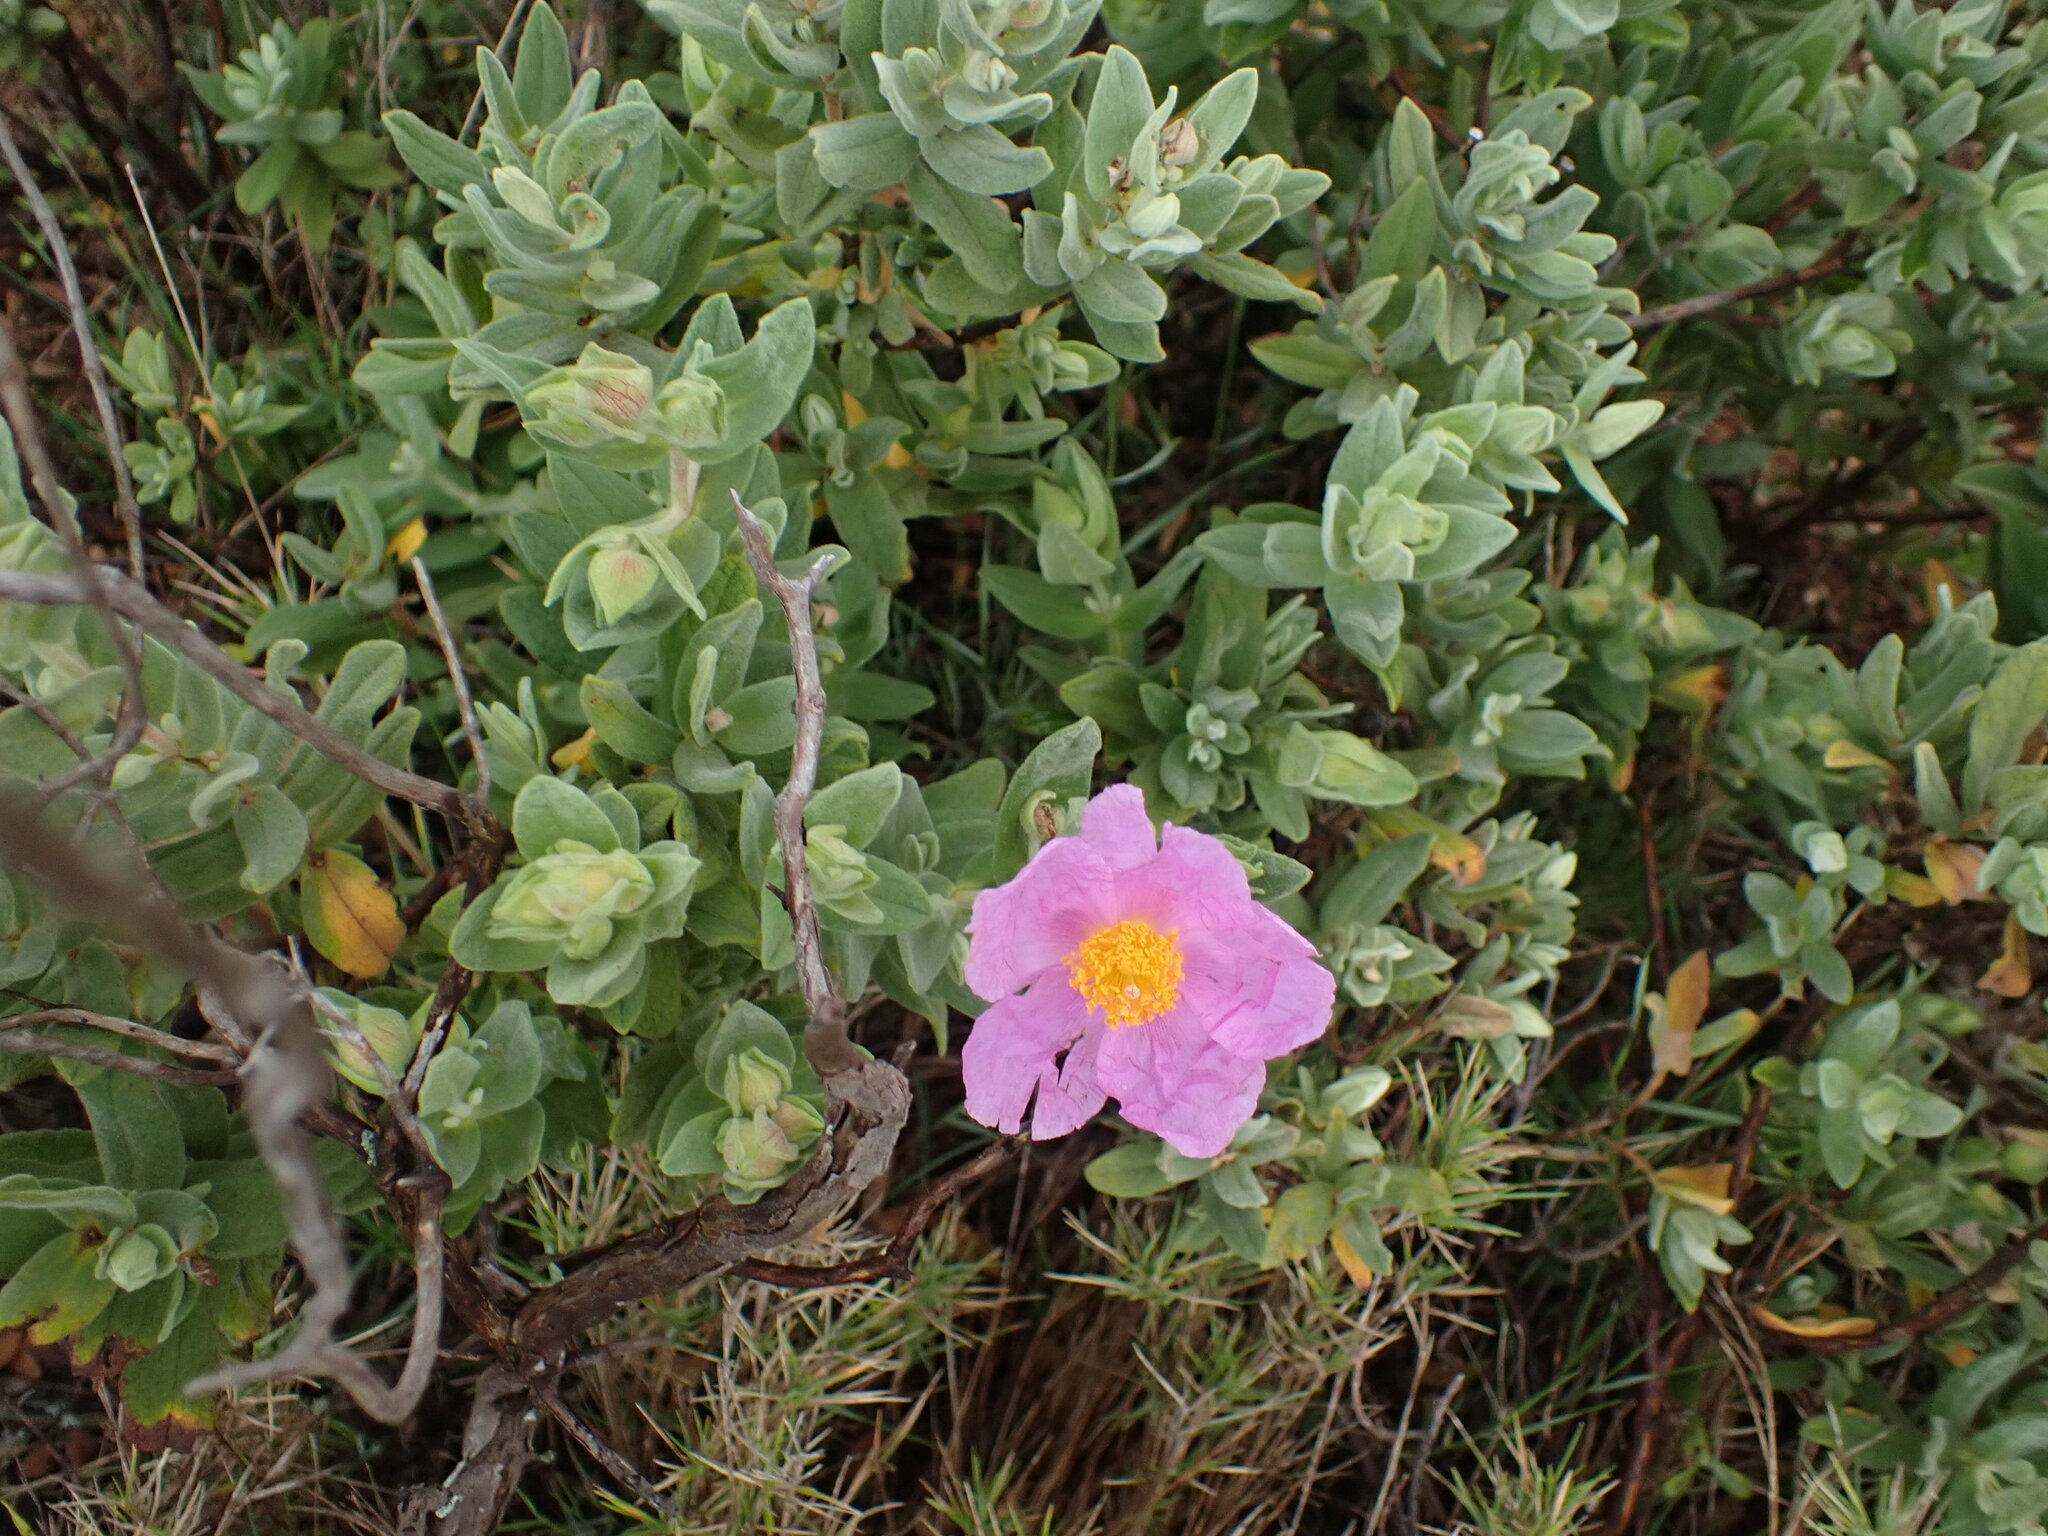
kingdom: Plantae
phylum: Tracheophyta
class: Magnoliopsida
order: Malvales
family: Cistaceae
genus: Cistus
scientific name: Cistus albidus
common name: White-leaf rock-rose
